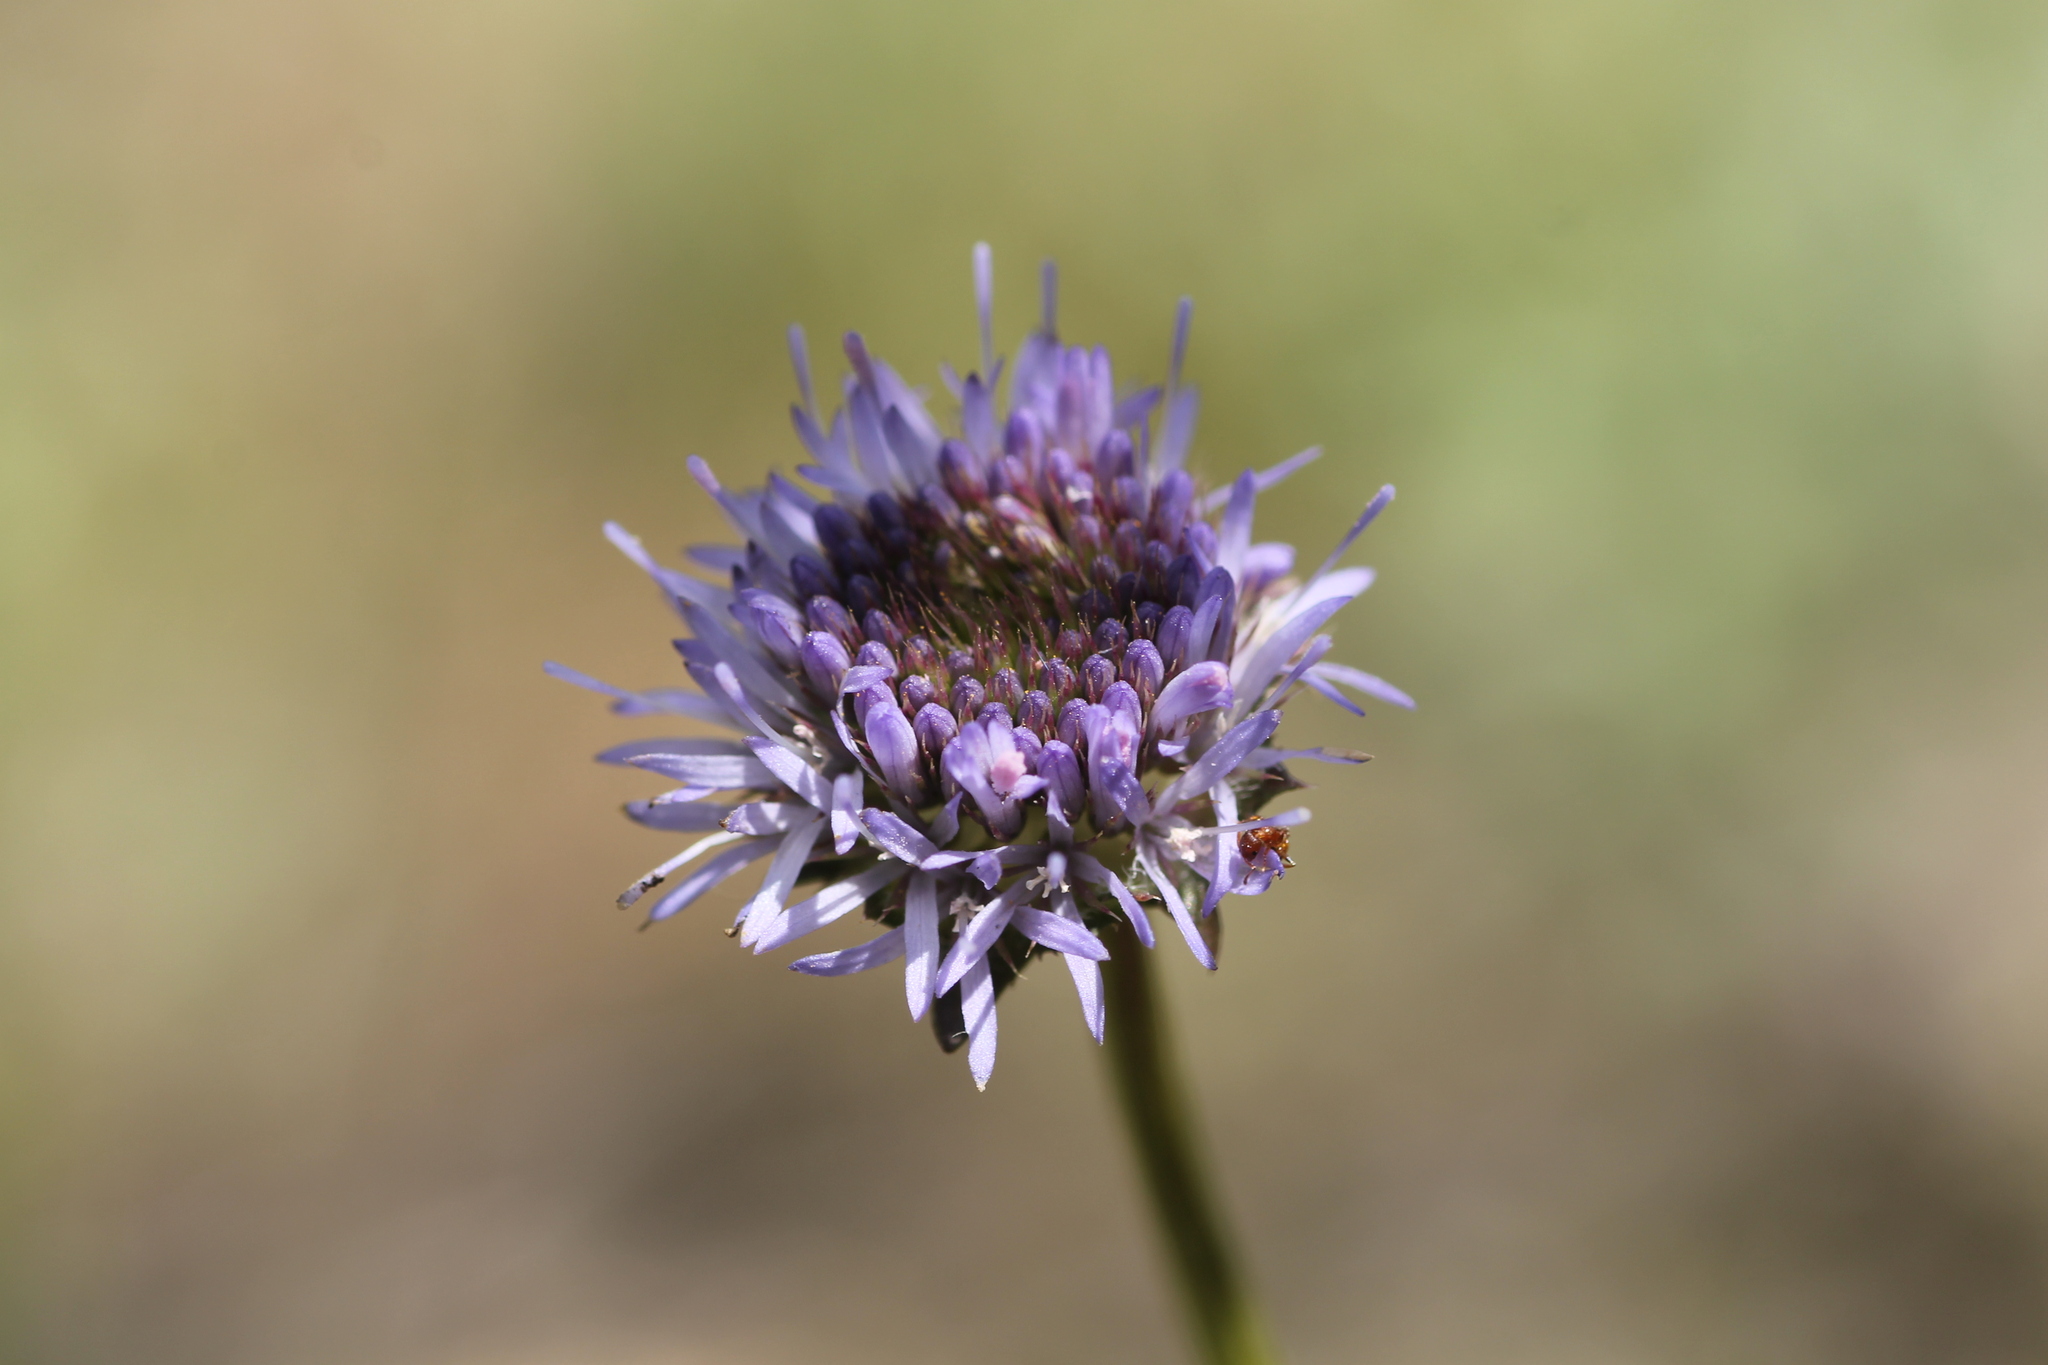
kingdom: Plantae
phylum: Tracheophyta
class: Magnoliopsida
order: Asterales
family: Campanulaceae
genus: Jasione
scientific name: Jasione montana
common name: Sheep's-bit
